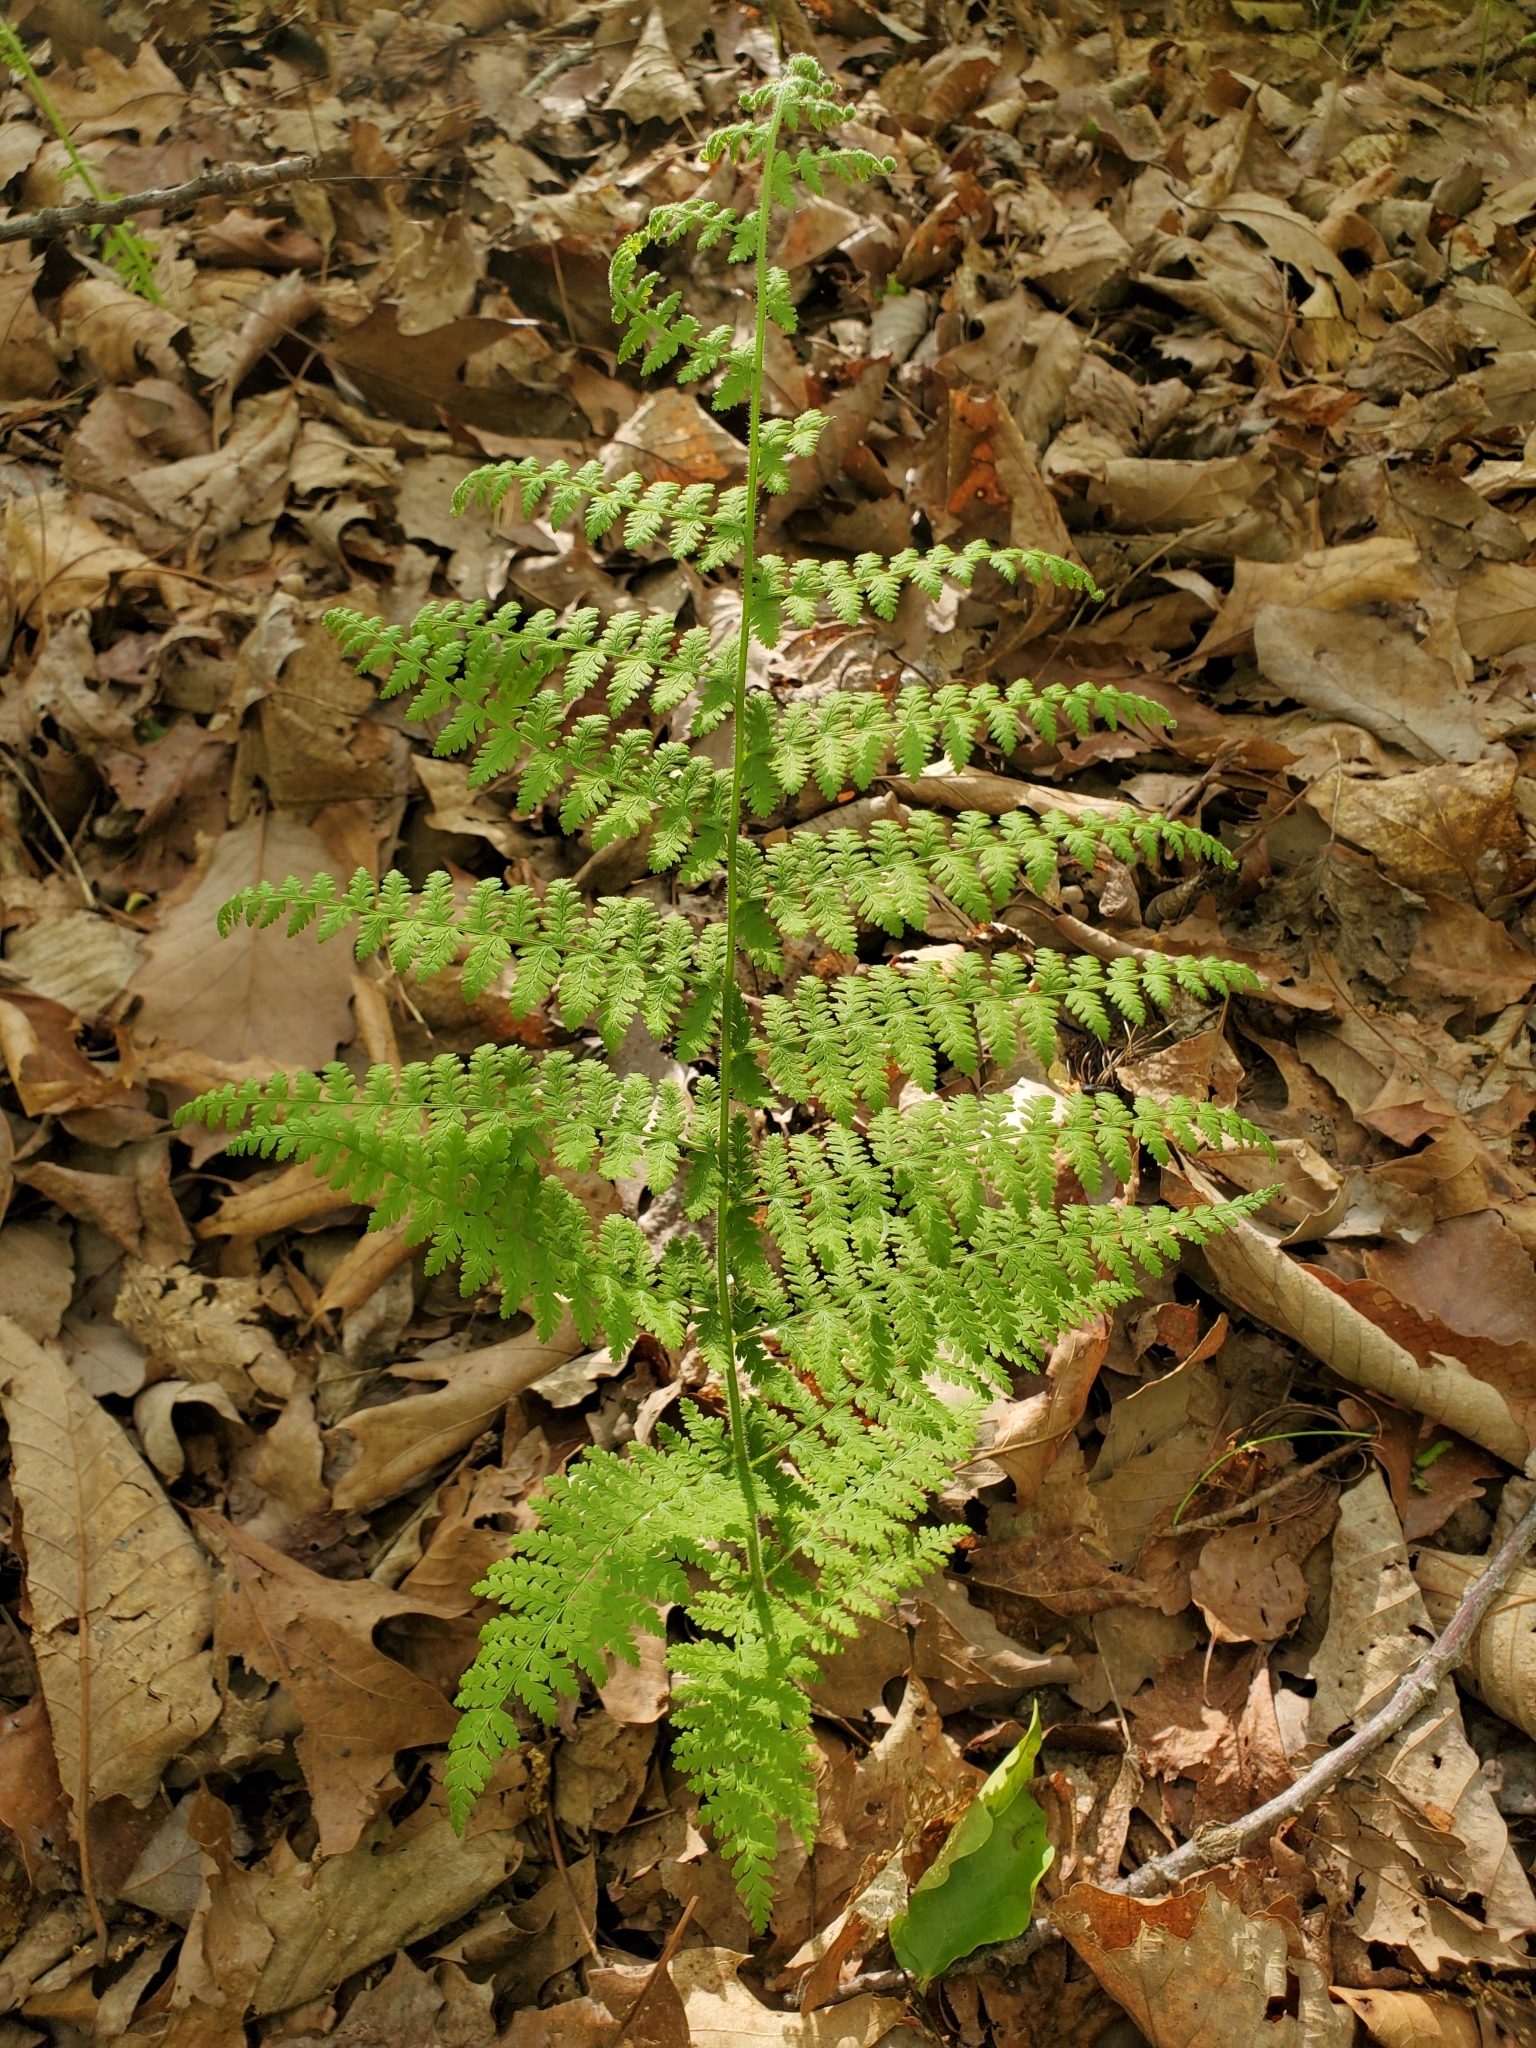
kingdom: Plantae
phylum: Tracheophyta
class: Polypodiopsida
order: Polypodiales
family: Dennstaedtiaceae
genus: Sitobolium
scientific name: Sitobolium punctilobum
